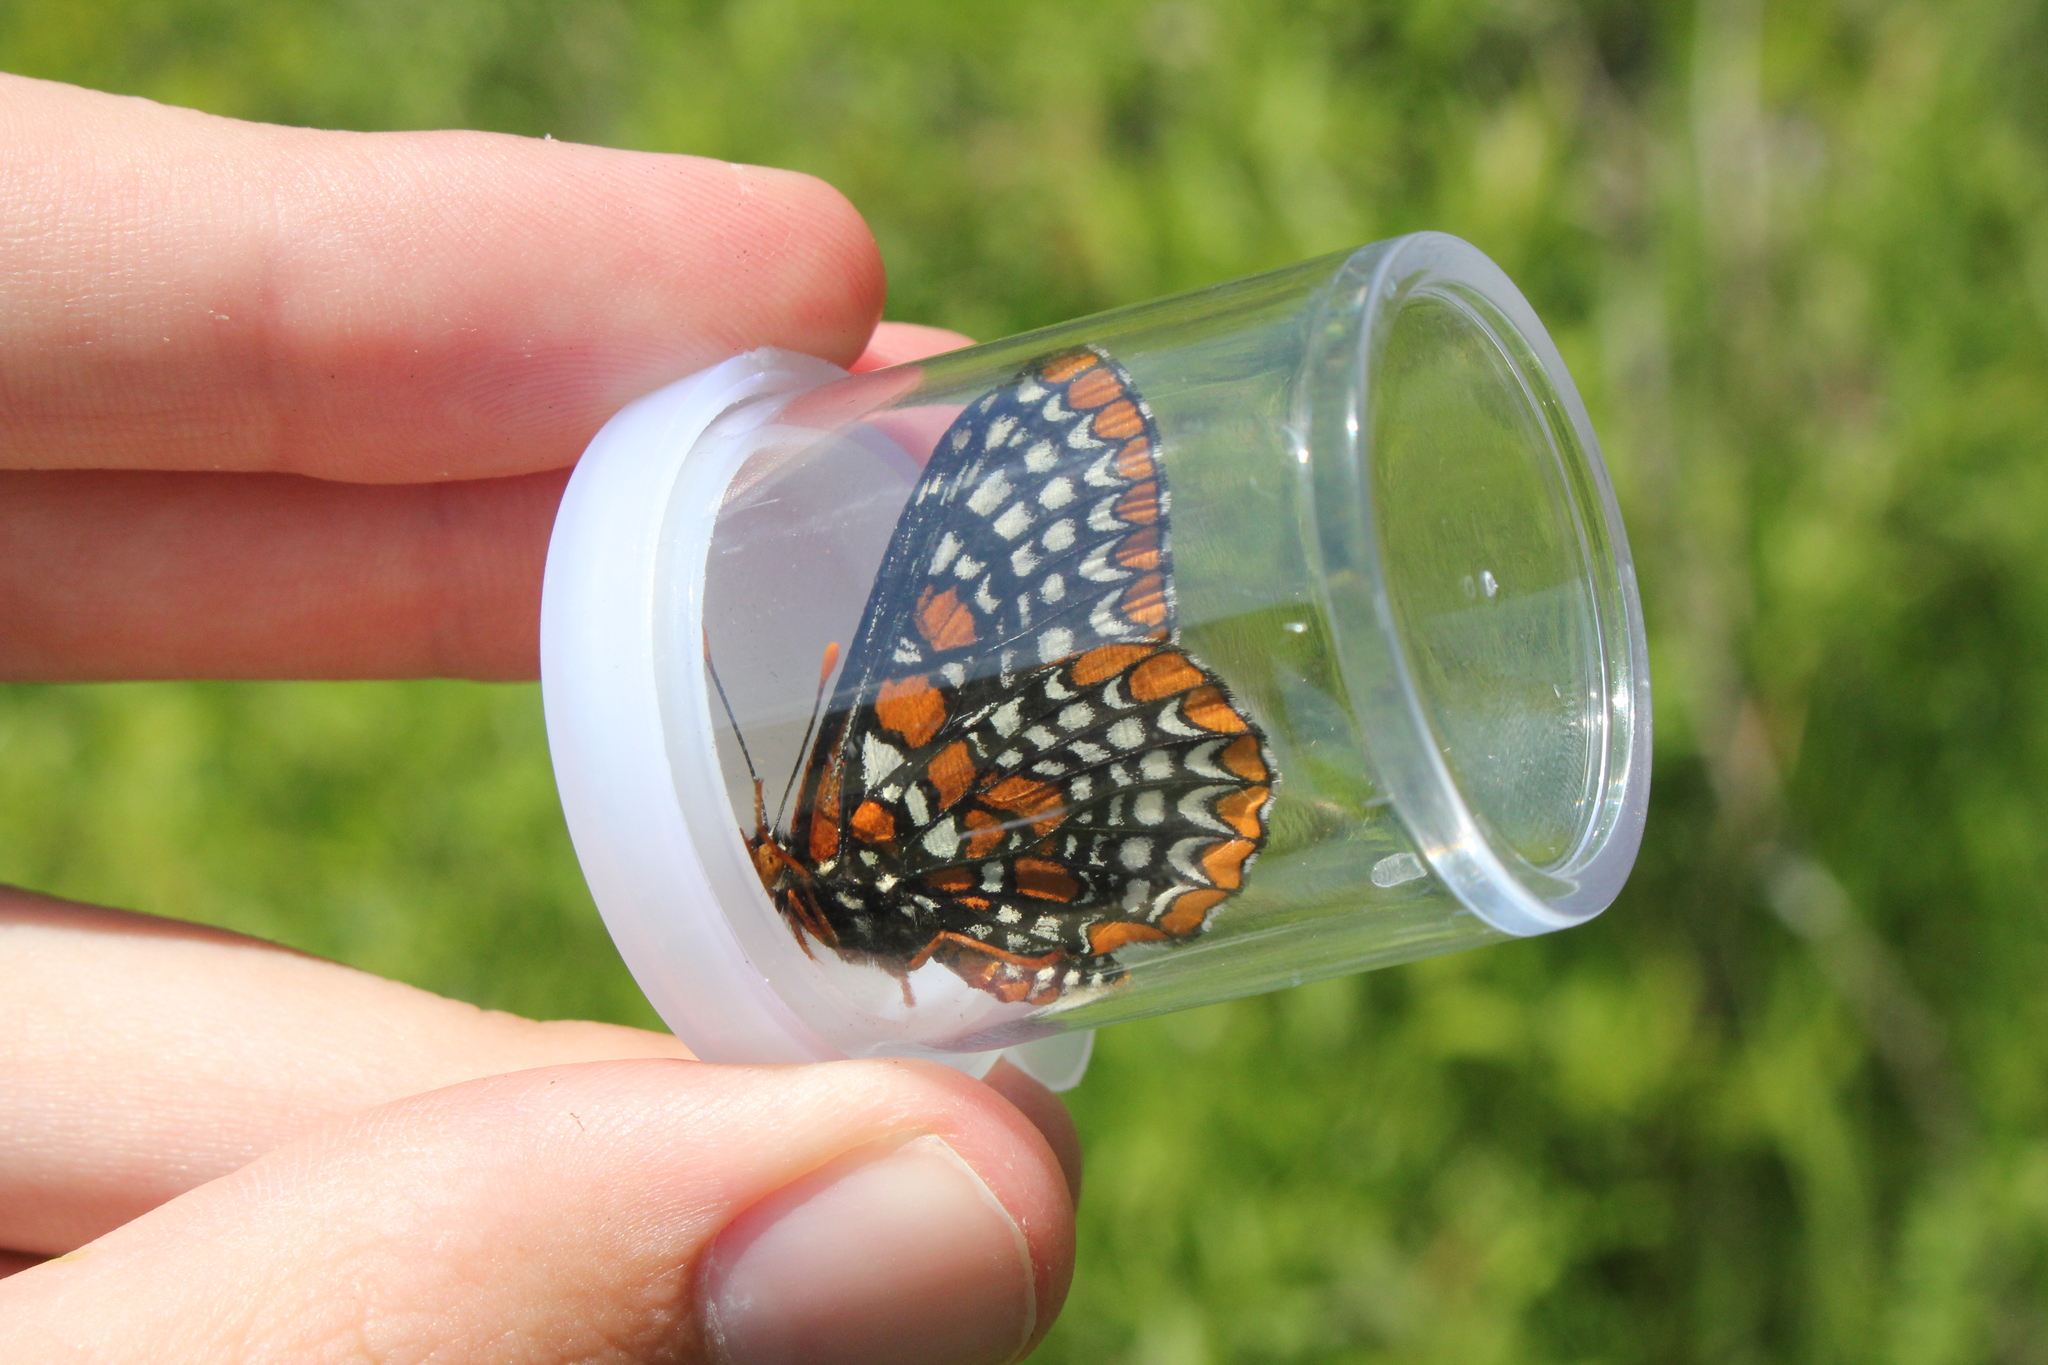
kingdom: Animalia
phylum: Arthropoda
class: Insecta
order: Lepidoptera
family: Nymphalidae
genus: Euphydryas
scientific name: Euphydryas phaeton
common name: Baltimore checkerspot
